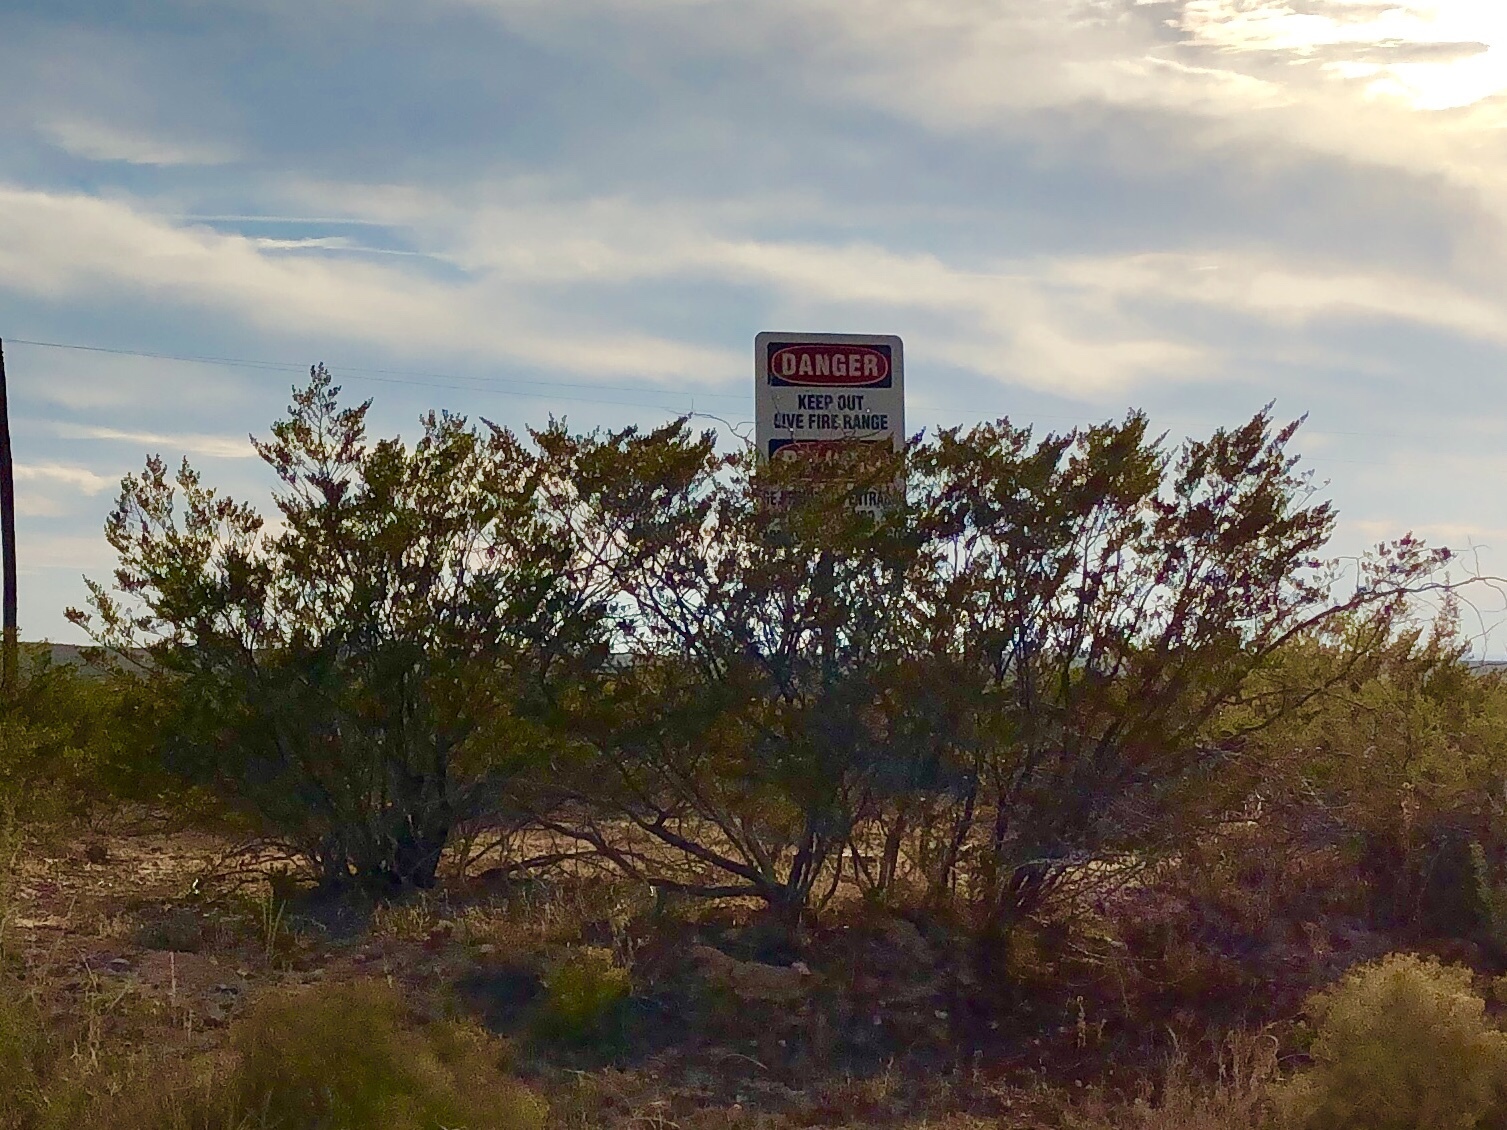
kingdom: Plantae
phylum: Tracheophyta
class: Magnoliopsida
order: Zygophyllales
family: Zygophyllaceae
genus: Larrea
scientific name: Larrea tridentata
